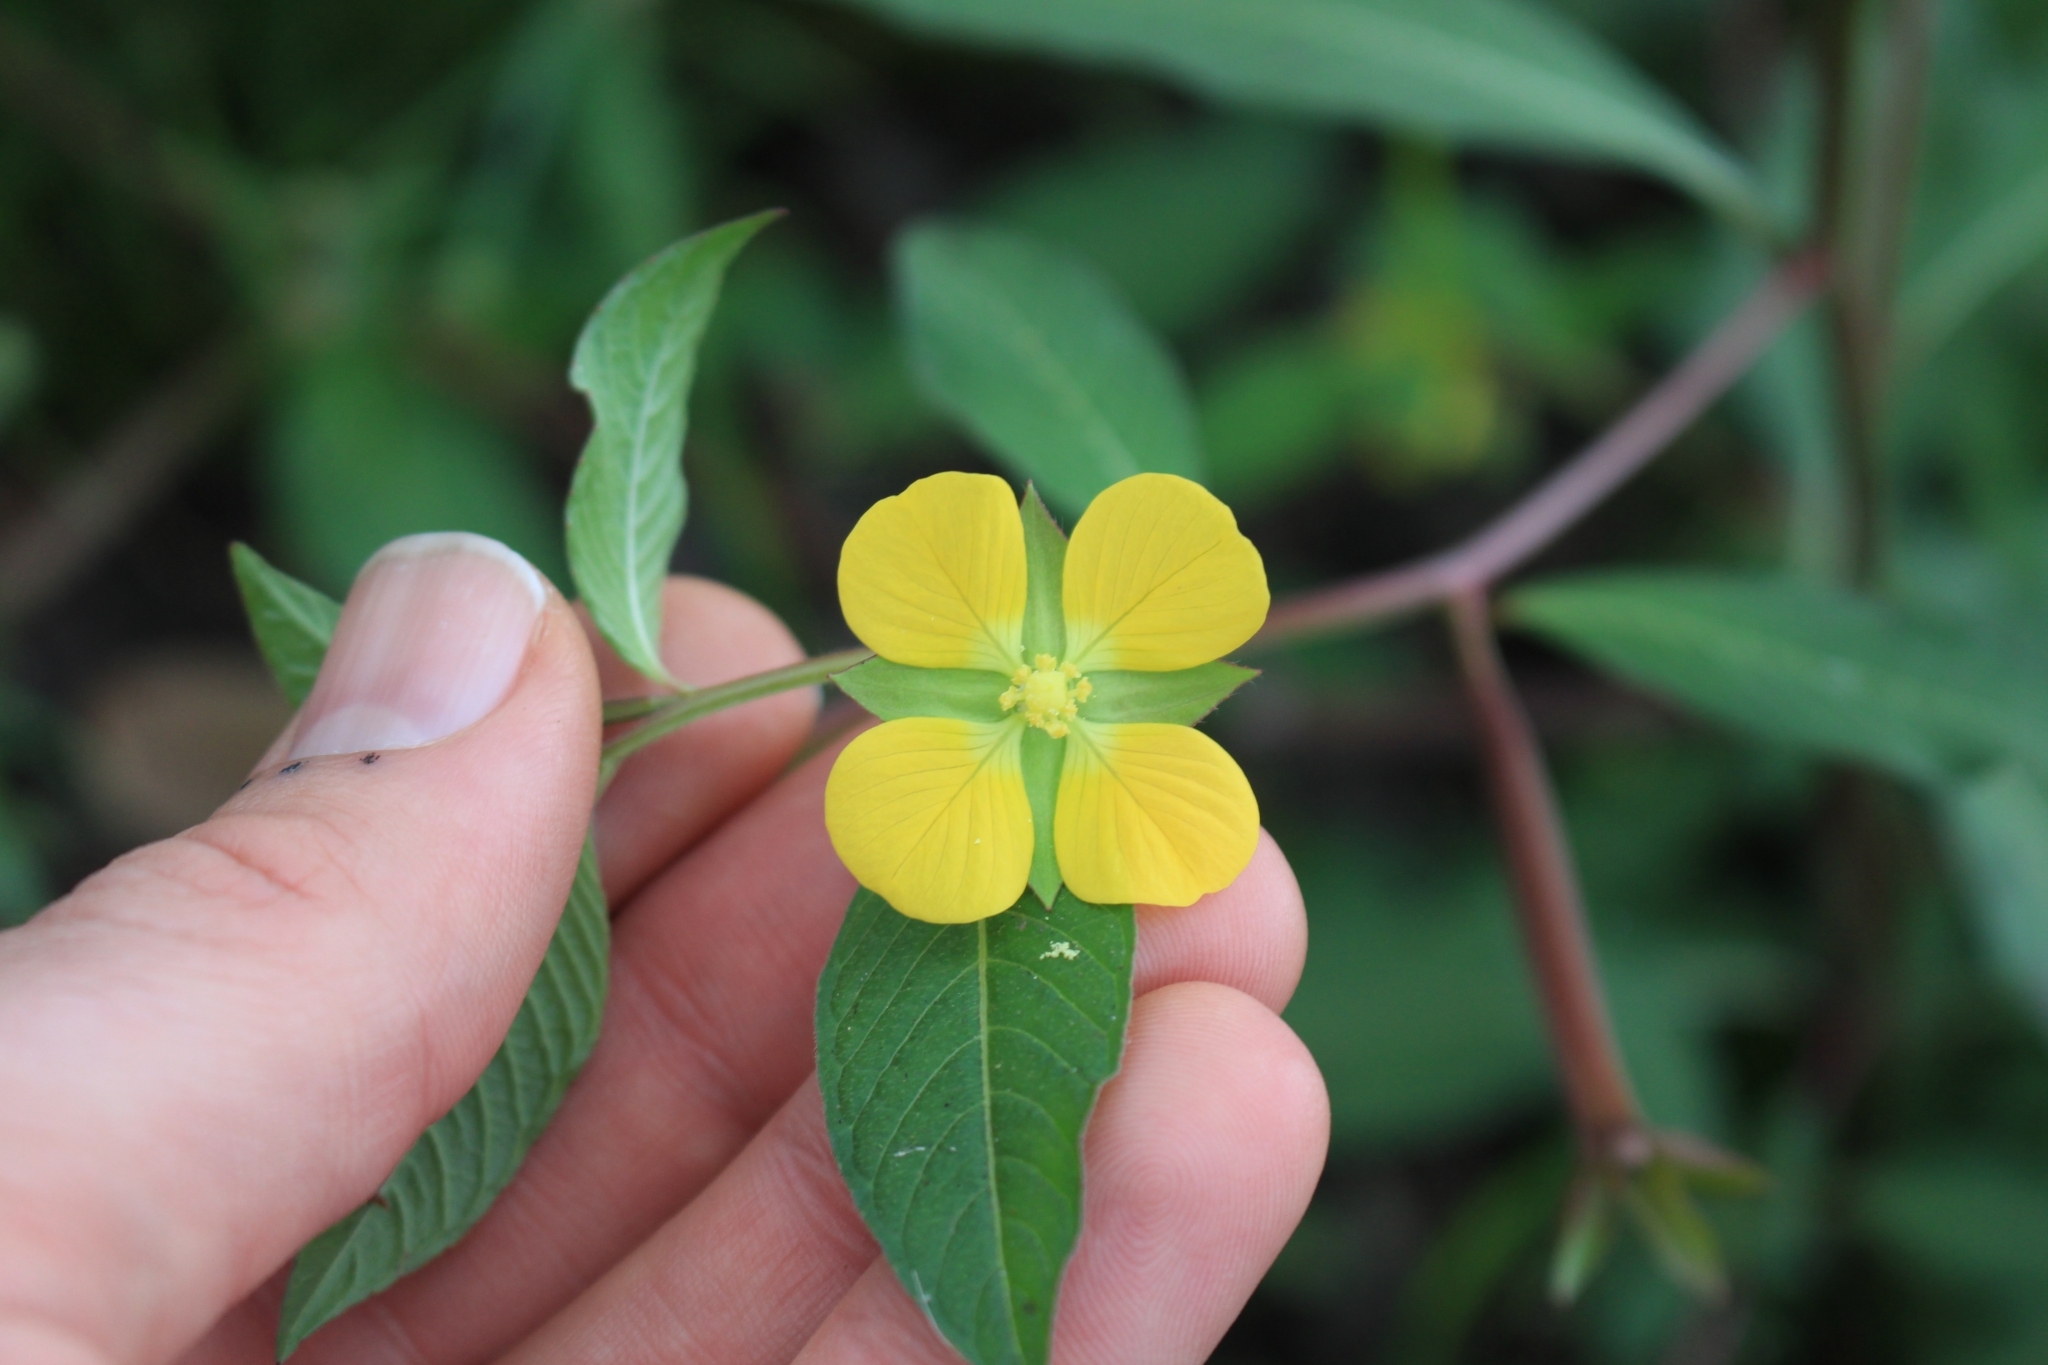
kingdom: Plantae
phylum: Tracheophyta
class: Magnoliopsida
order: Myrtales
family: Onagraceae
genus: Ludwigia
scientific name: Ludwigia octovalvis
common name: Water-primrose
